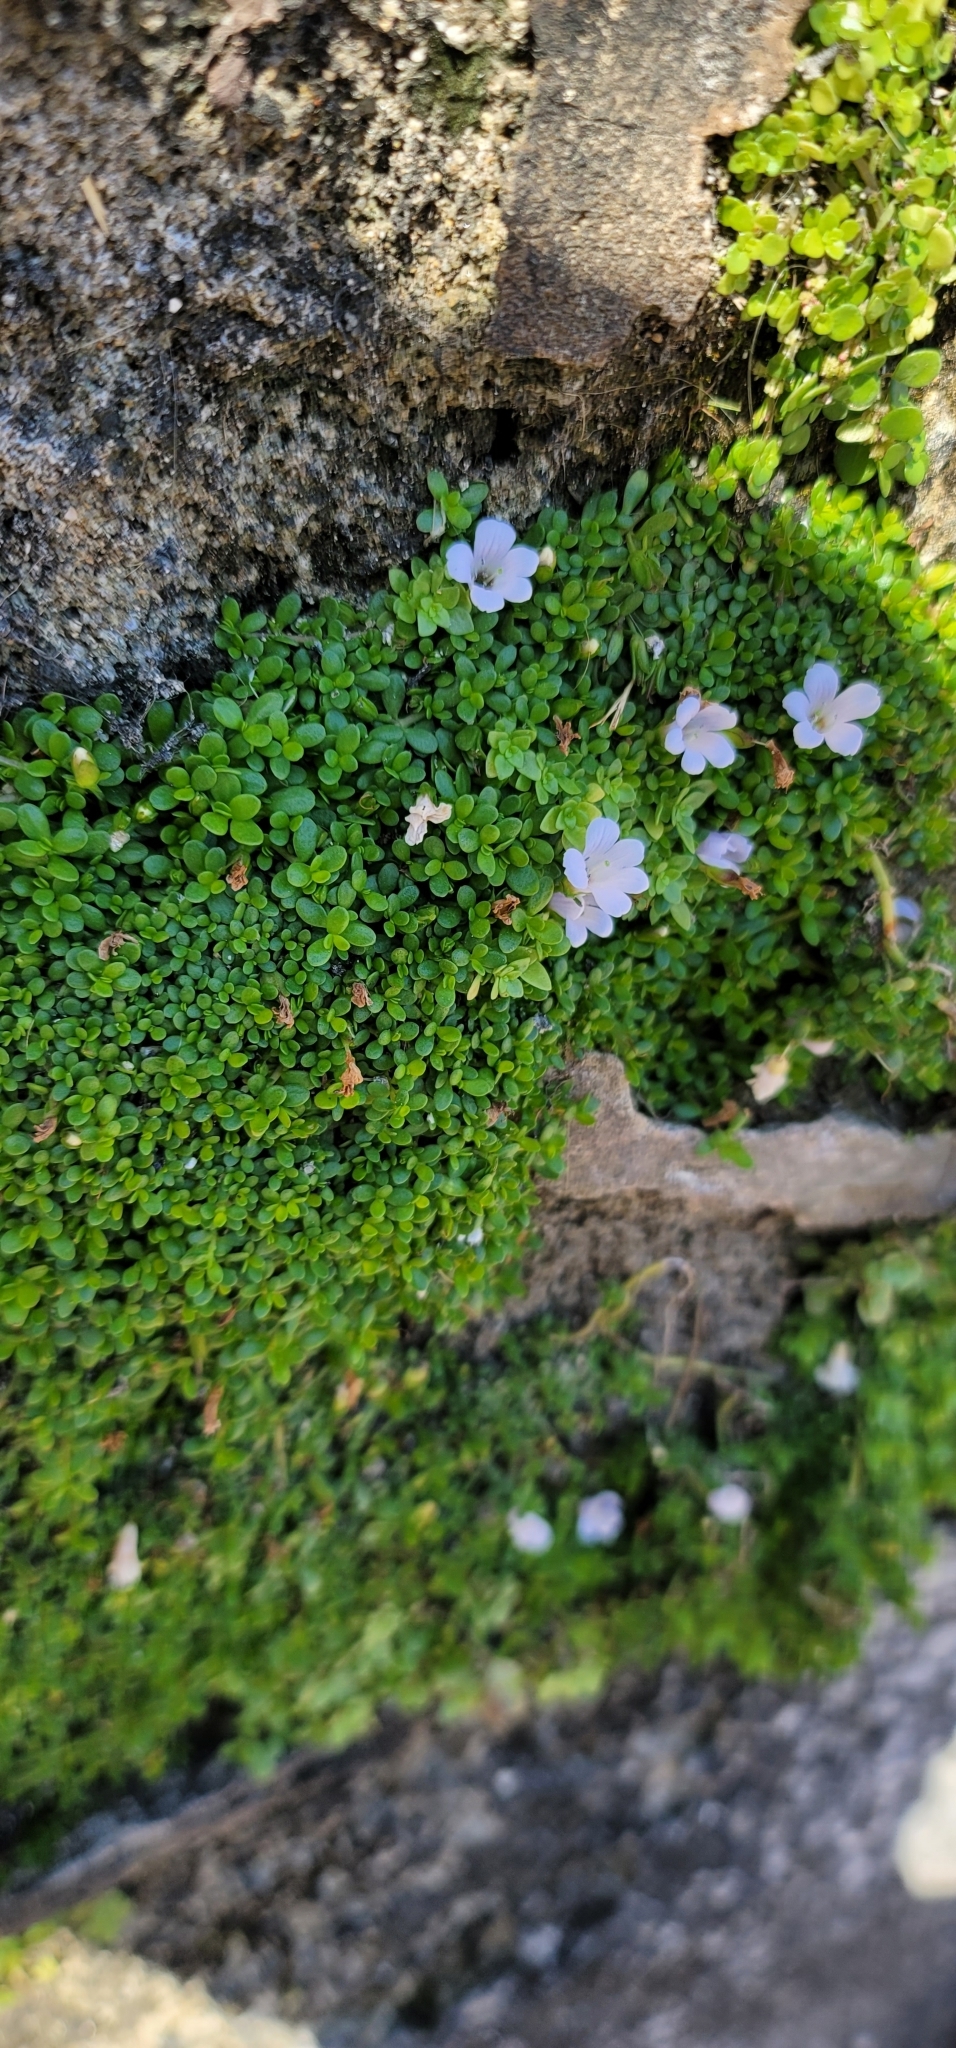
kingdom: Plantae
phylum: Tracheophyta
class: Magnoliopsida
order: Lamiales
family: Plantaginaceae
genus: Bacopa
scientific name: Bacopa monnieri
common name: Indian-pennywort
